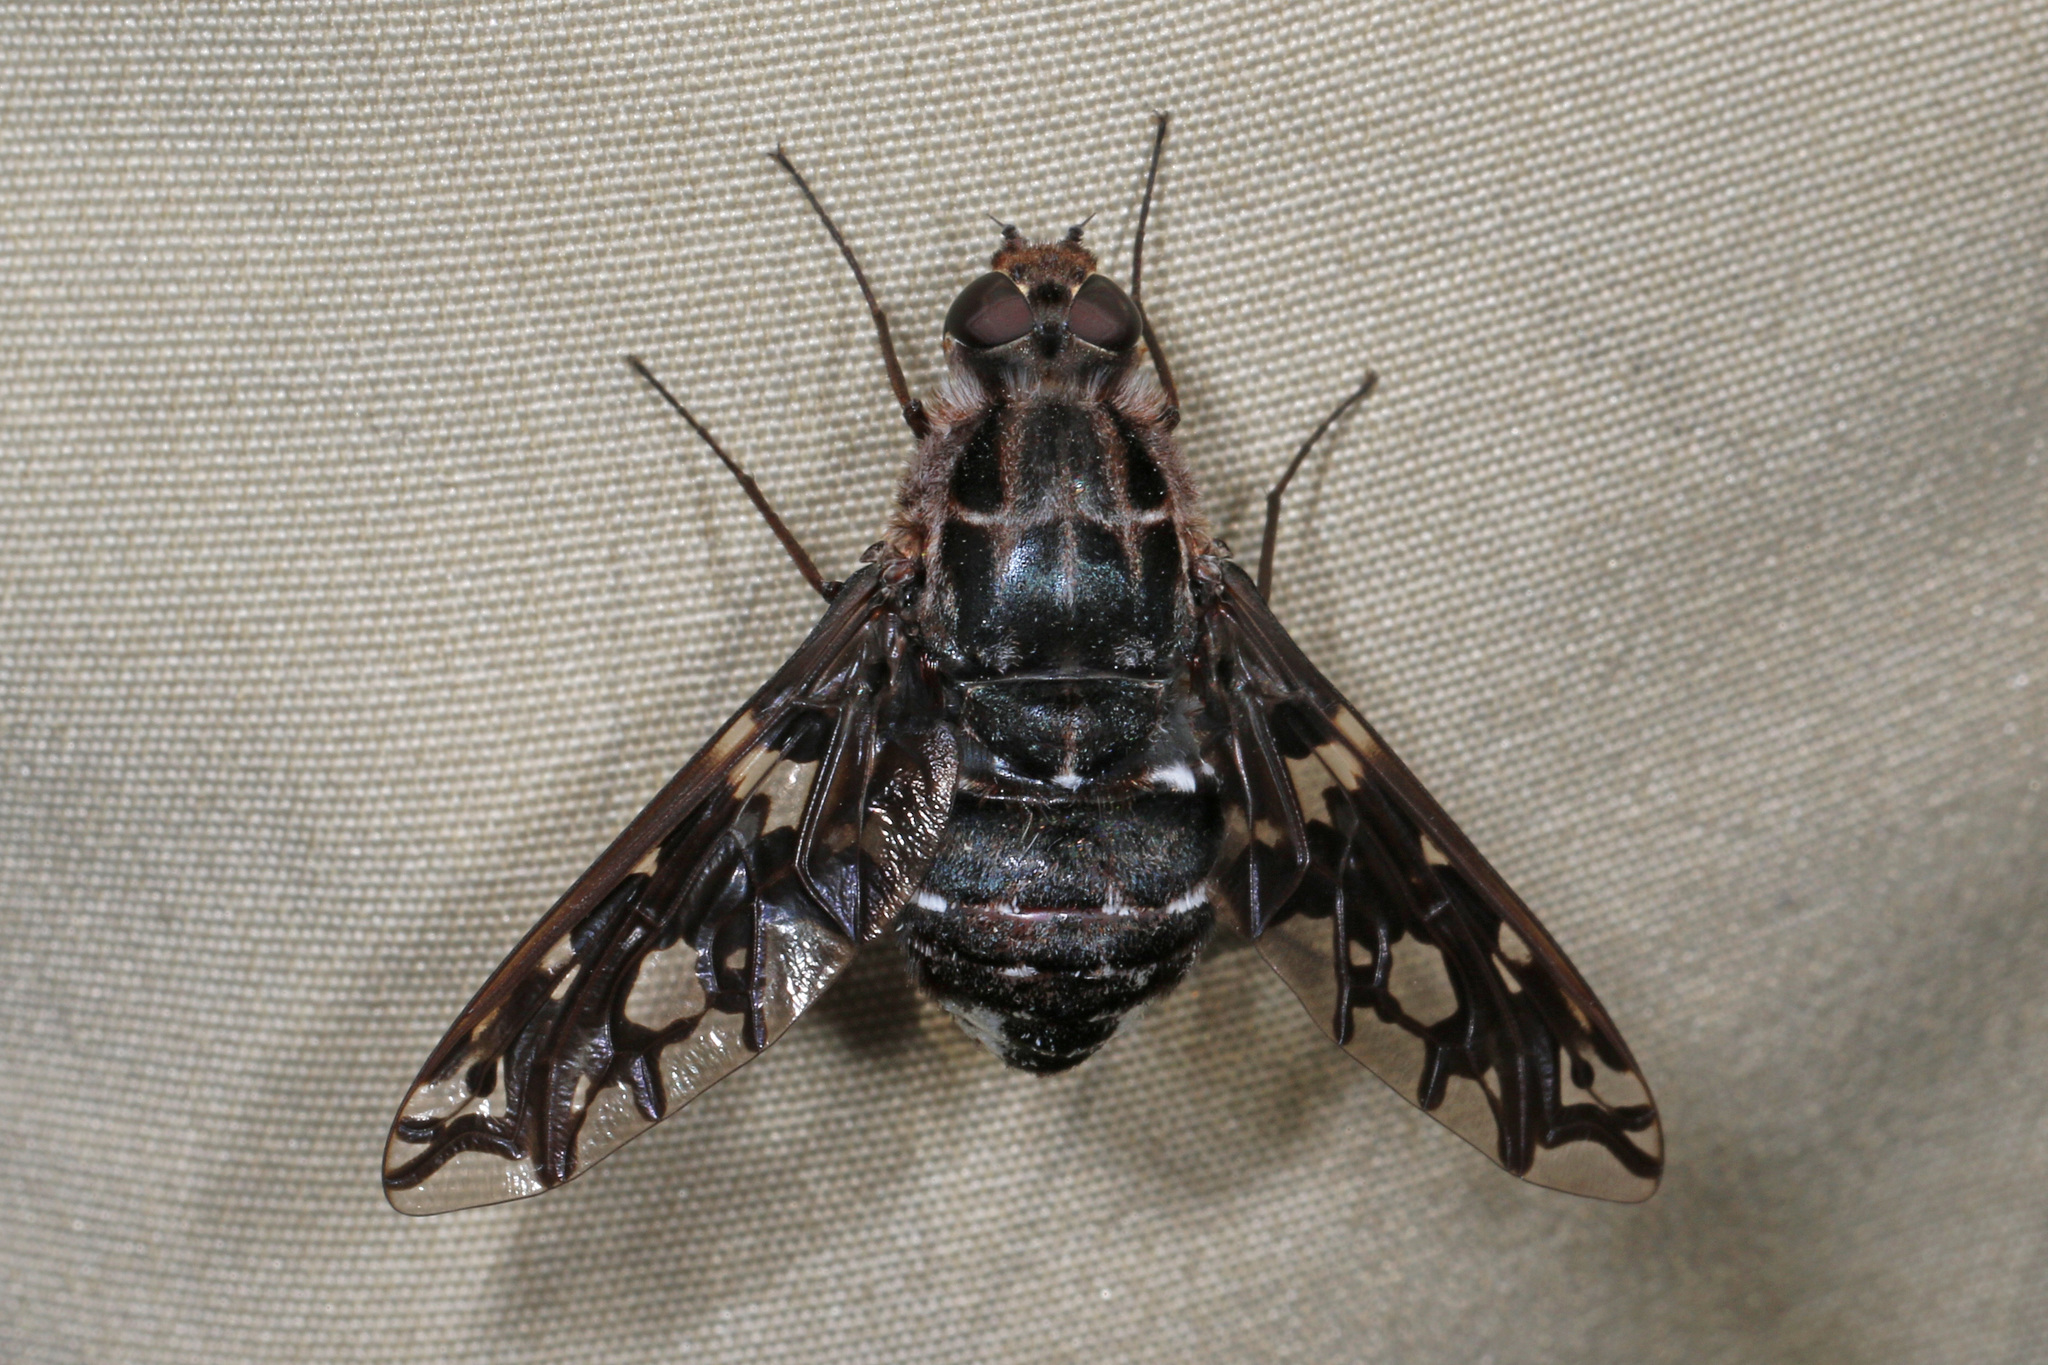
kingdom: Animalia
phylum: Arthropoda
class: Insecta
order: Diptera
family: Bombyliidae
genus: Xenox
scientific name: Xenox tigrinus
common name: Tiger bee fly
